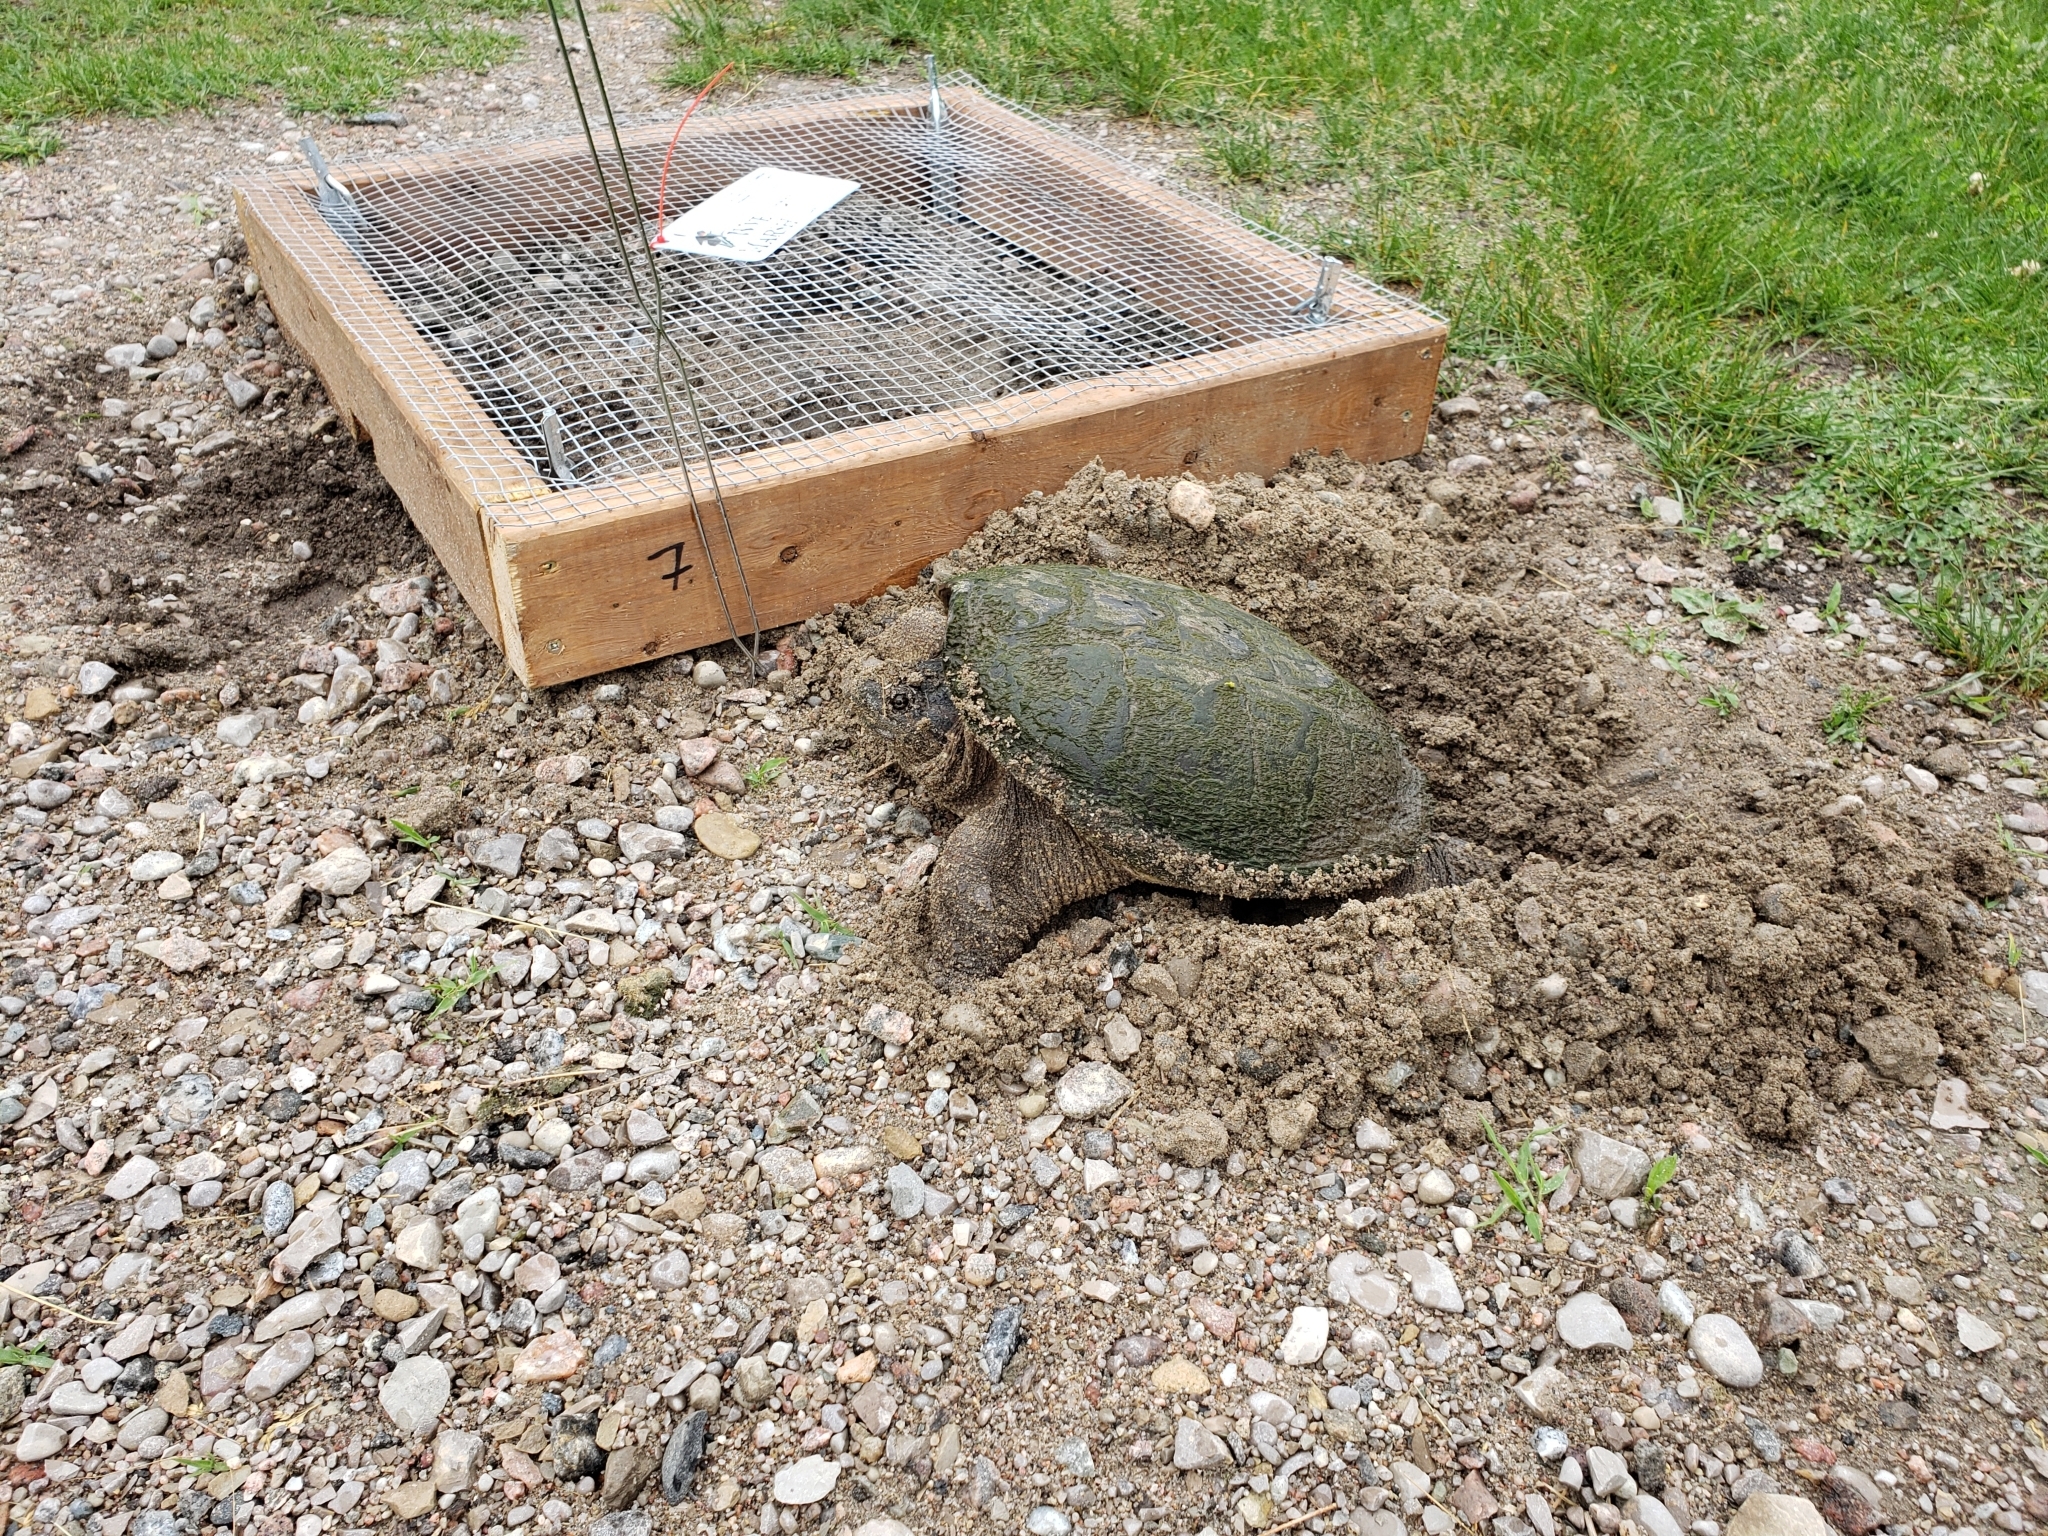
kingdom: Animalia
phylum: Chordata
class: Testudines
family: Chelydridae
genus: Chelydra
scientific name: Chelydra serpentina
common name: Common snapping turtle
